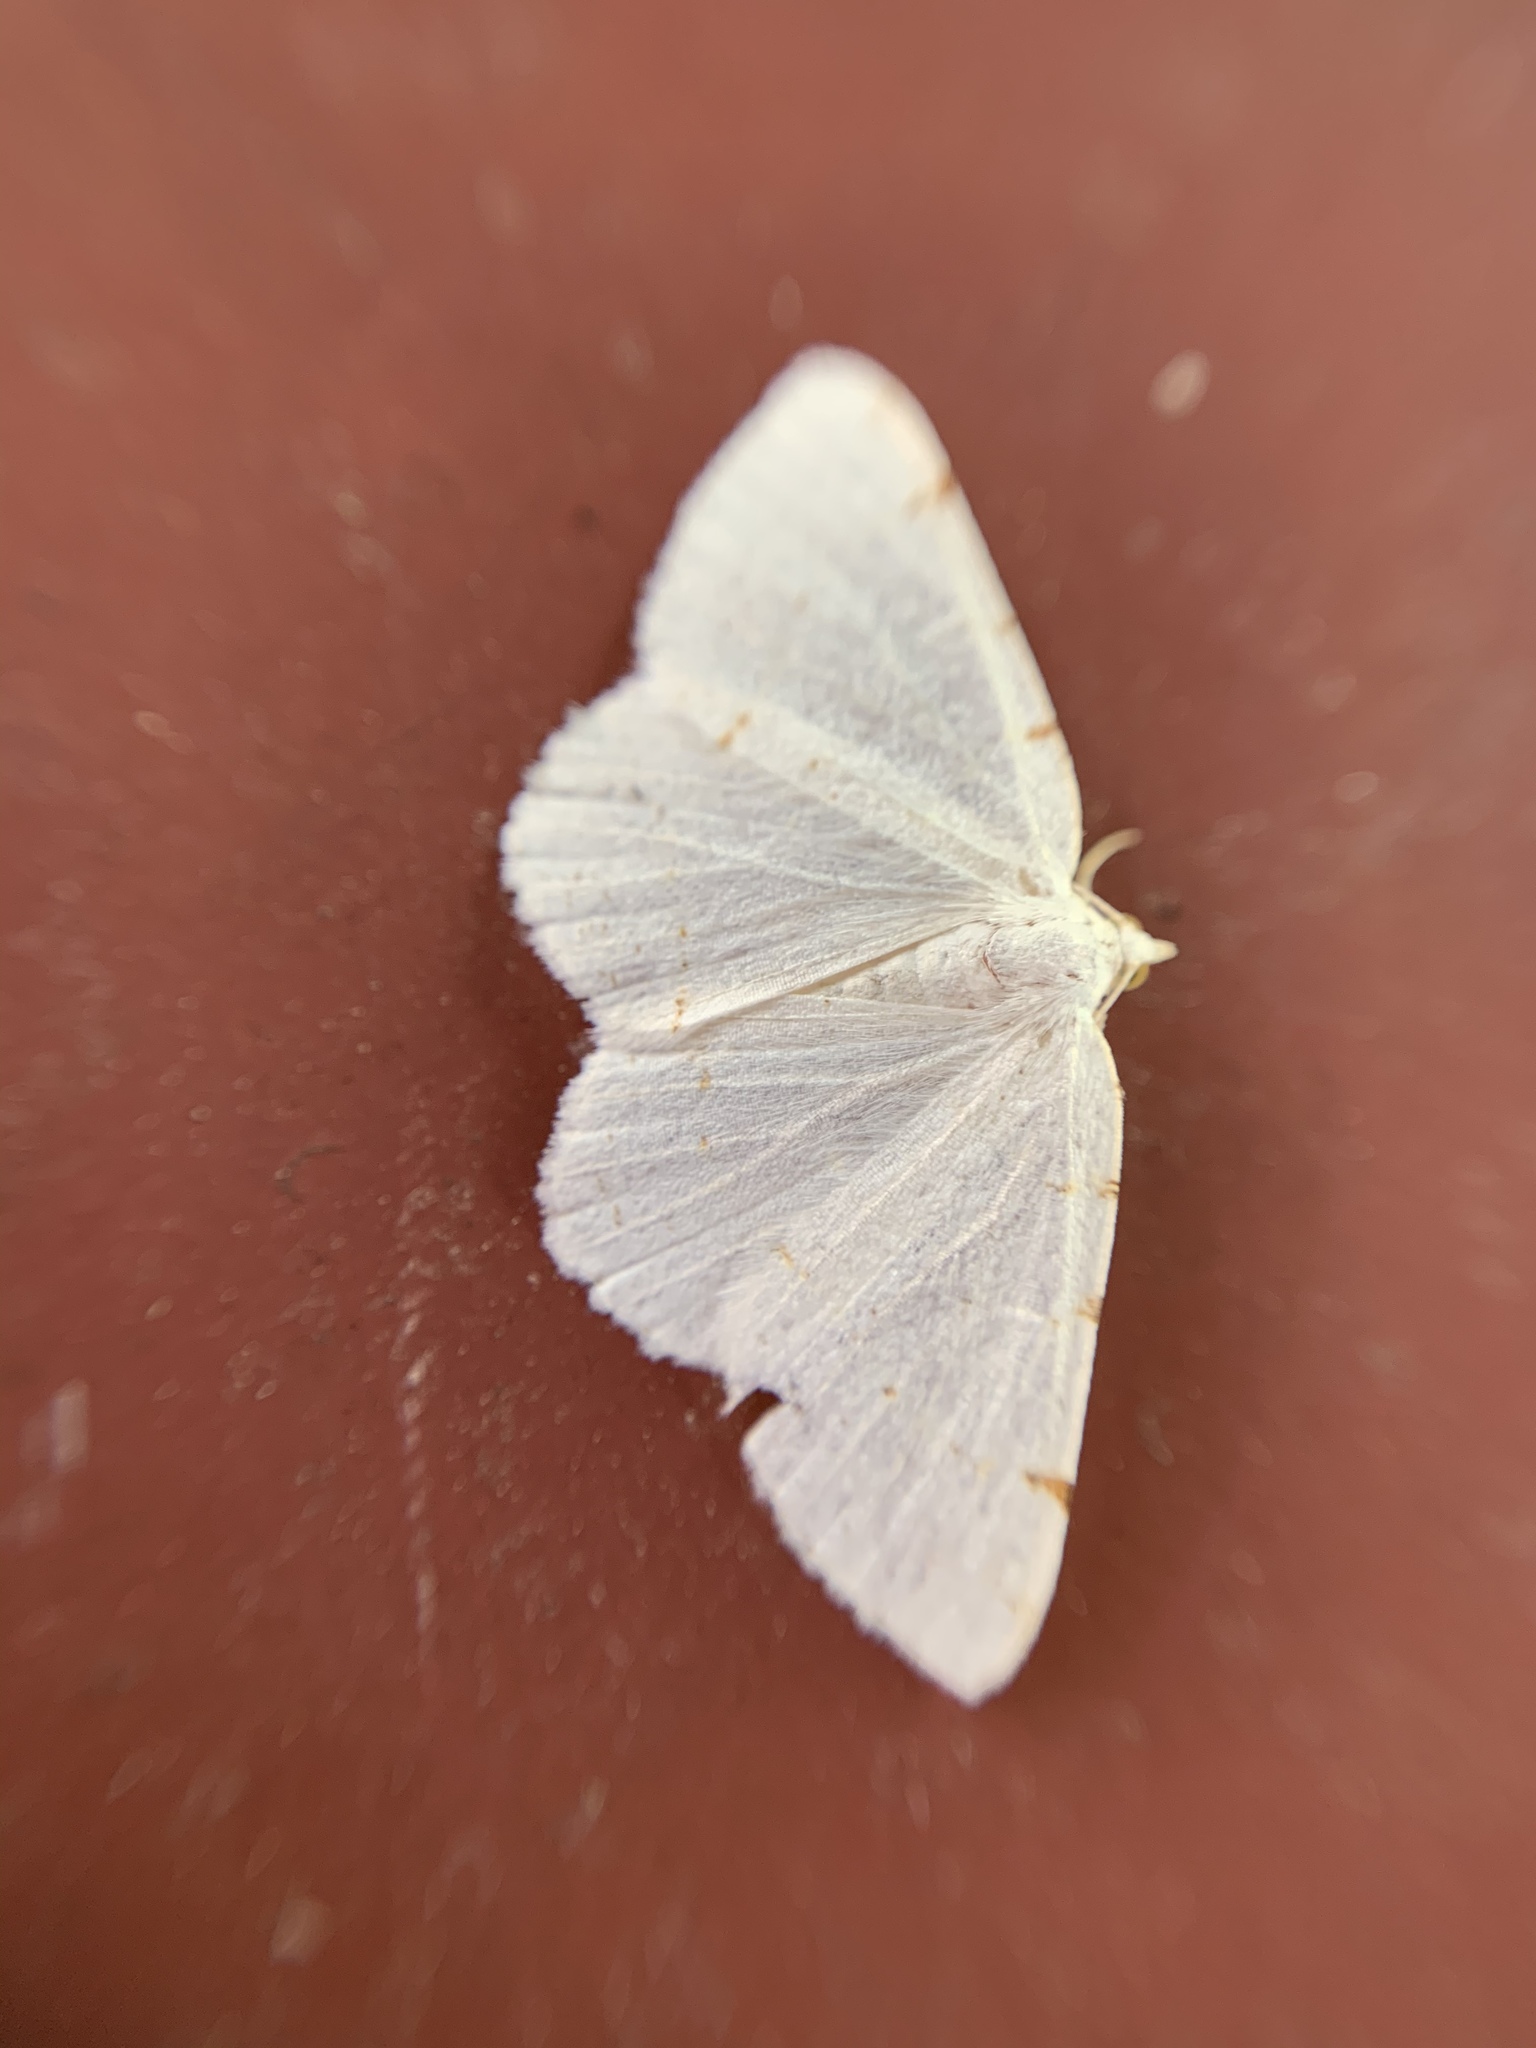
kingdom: Animalia
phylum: Arthropoda
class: Insecta
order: Lepidoptera
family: Geometridae
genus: Macaria
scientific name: Macaria pustularia
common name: Lesser maple spanworm moth
